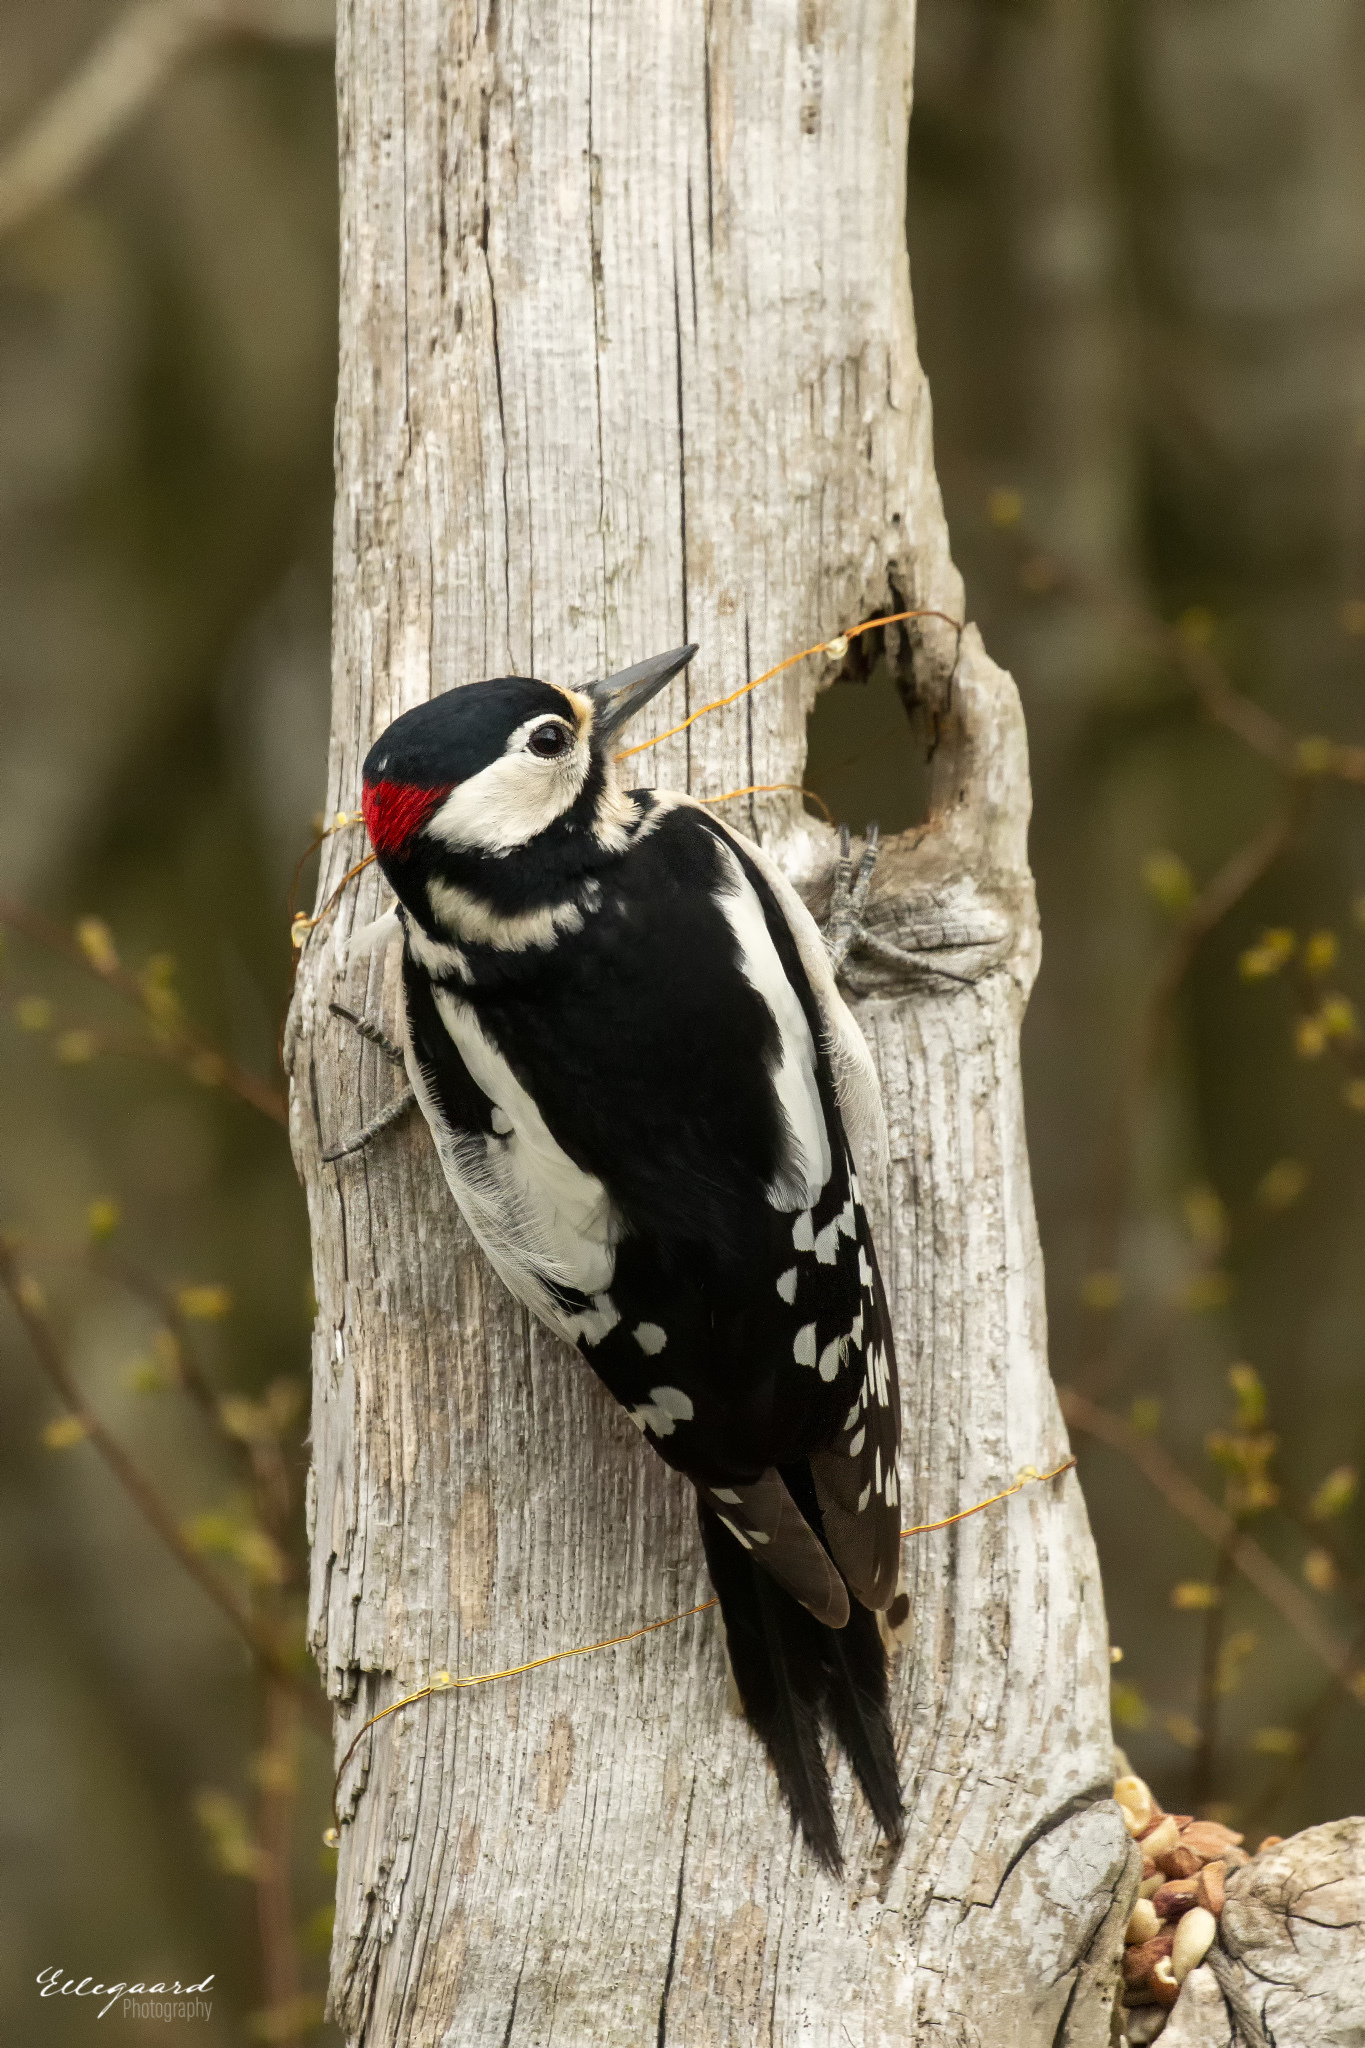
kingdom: Animalia
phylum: Chordata
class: Aves
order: Piciformes
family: Picidae
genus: Dendrocopos
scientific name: Dendrocopos major
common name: Great spotted woodpecker
